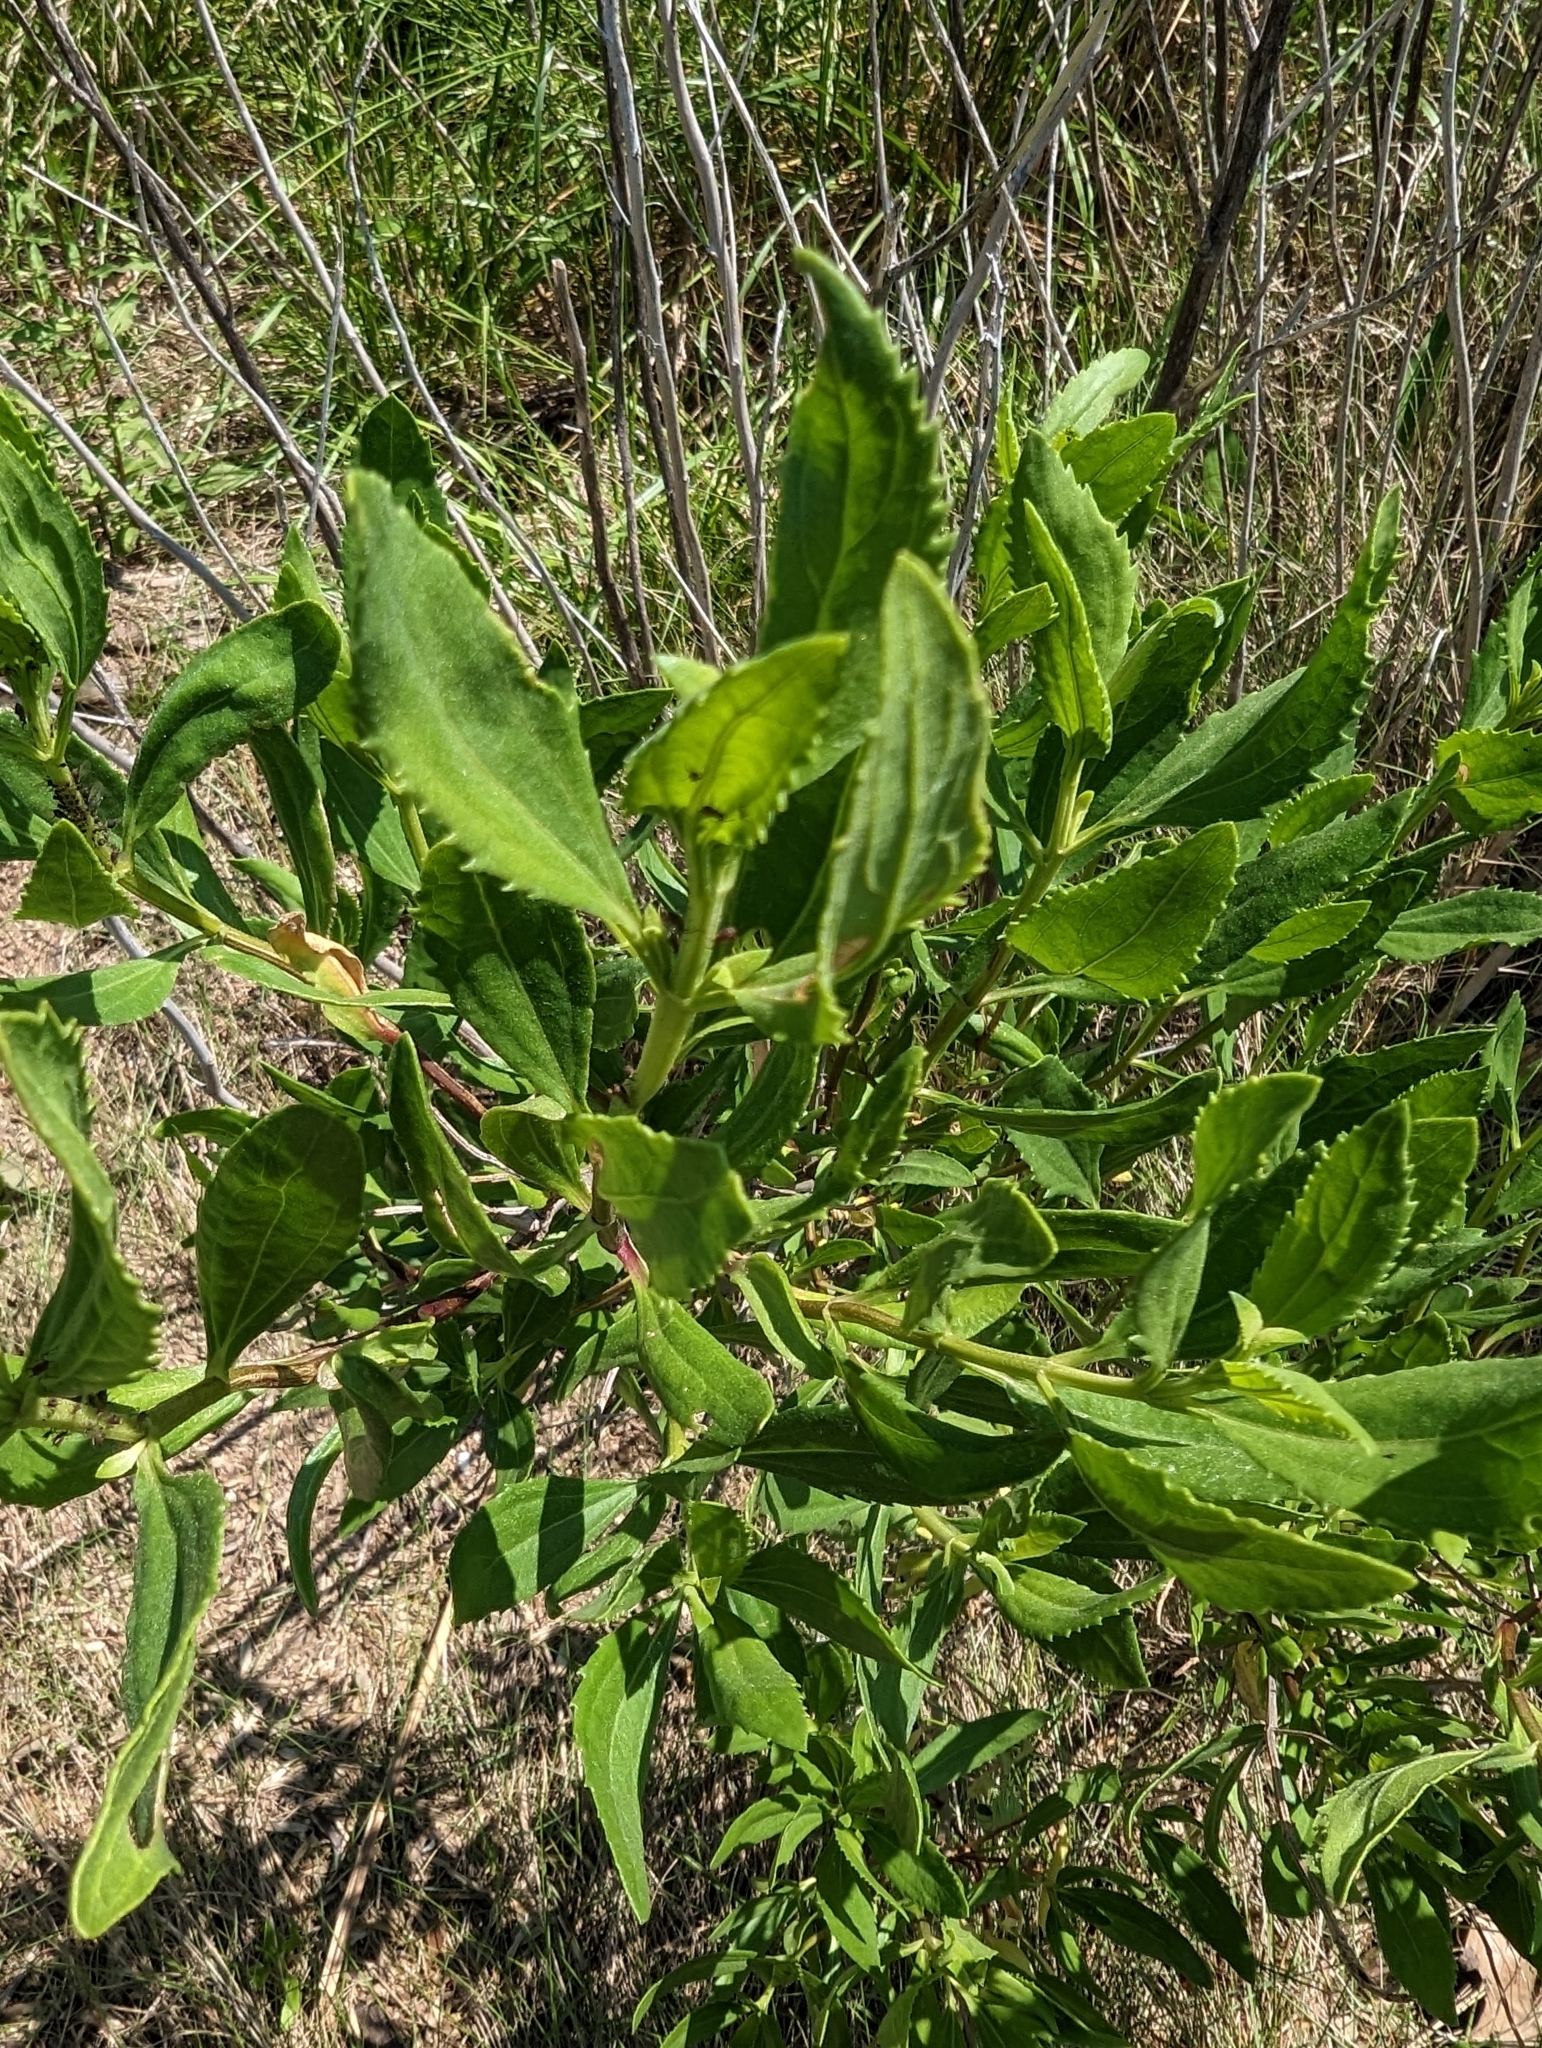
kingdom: Plantae
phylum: Tracheophyta
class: Magnoliopsida
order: Asterales
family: Asteraceae
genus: Iva
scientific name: Iva frutescens
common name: Big-leaved marsh-elder
